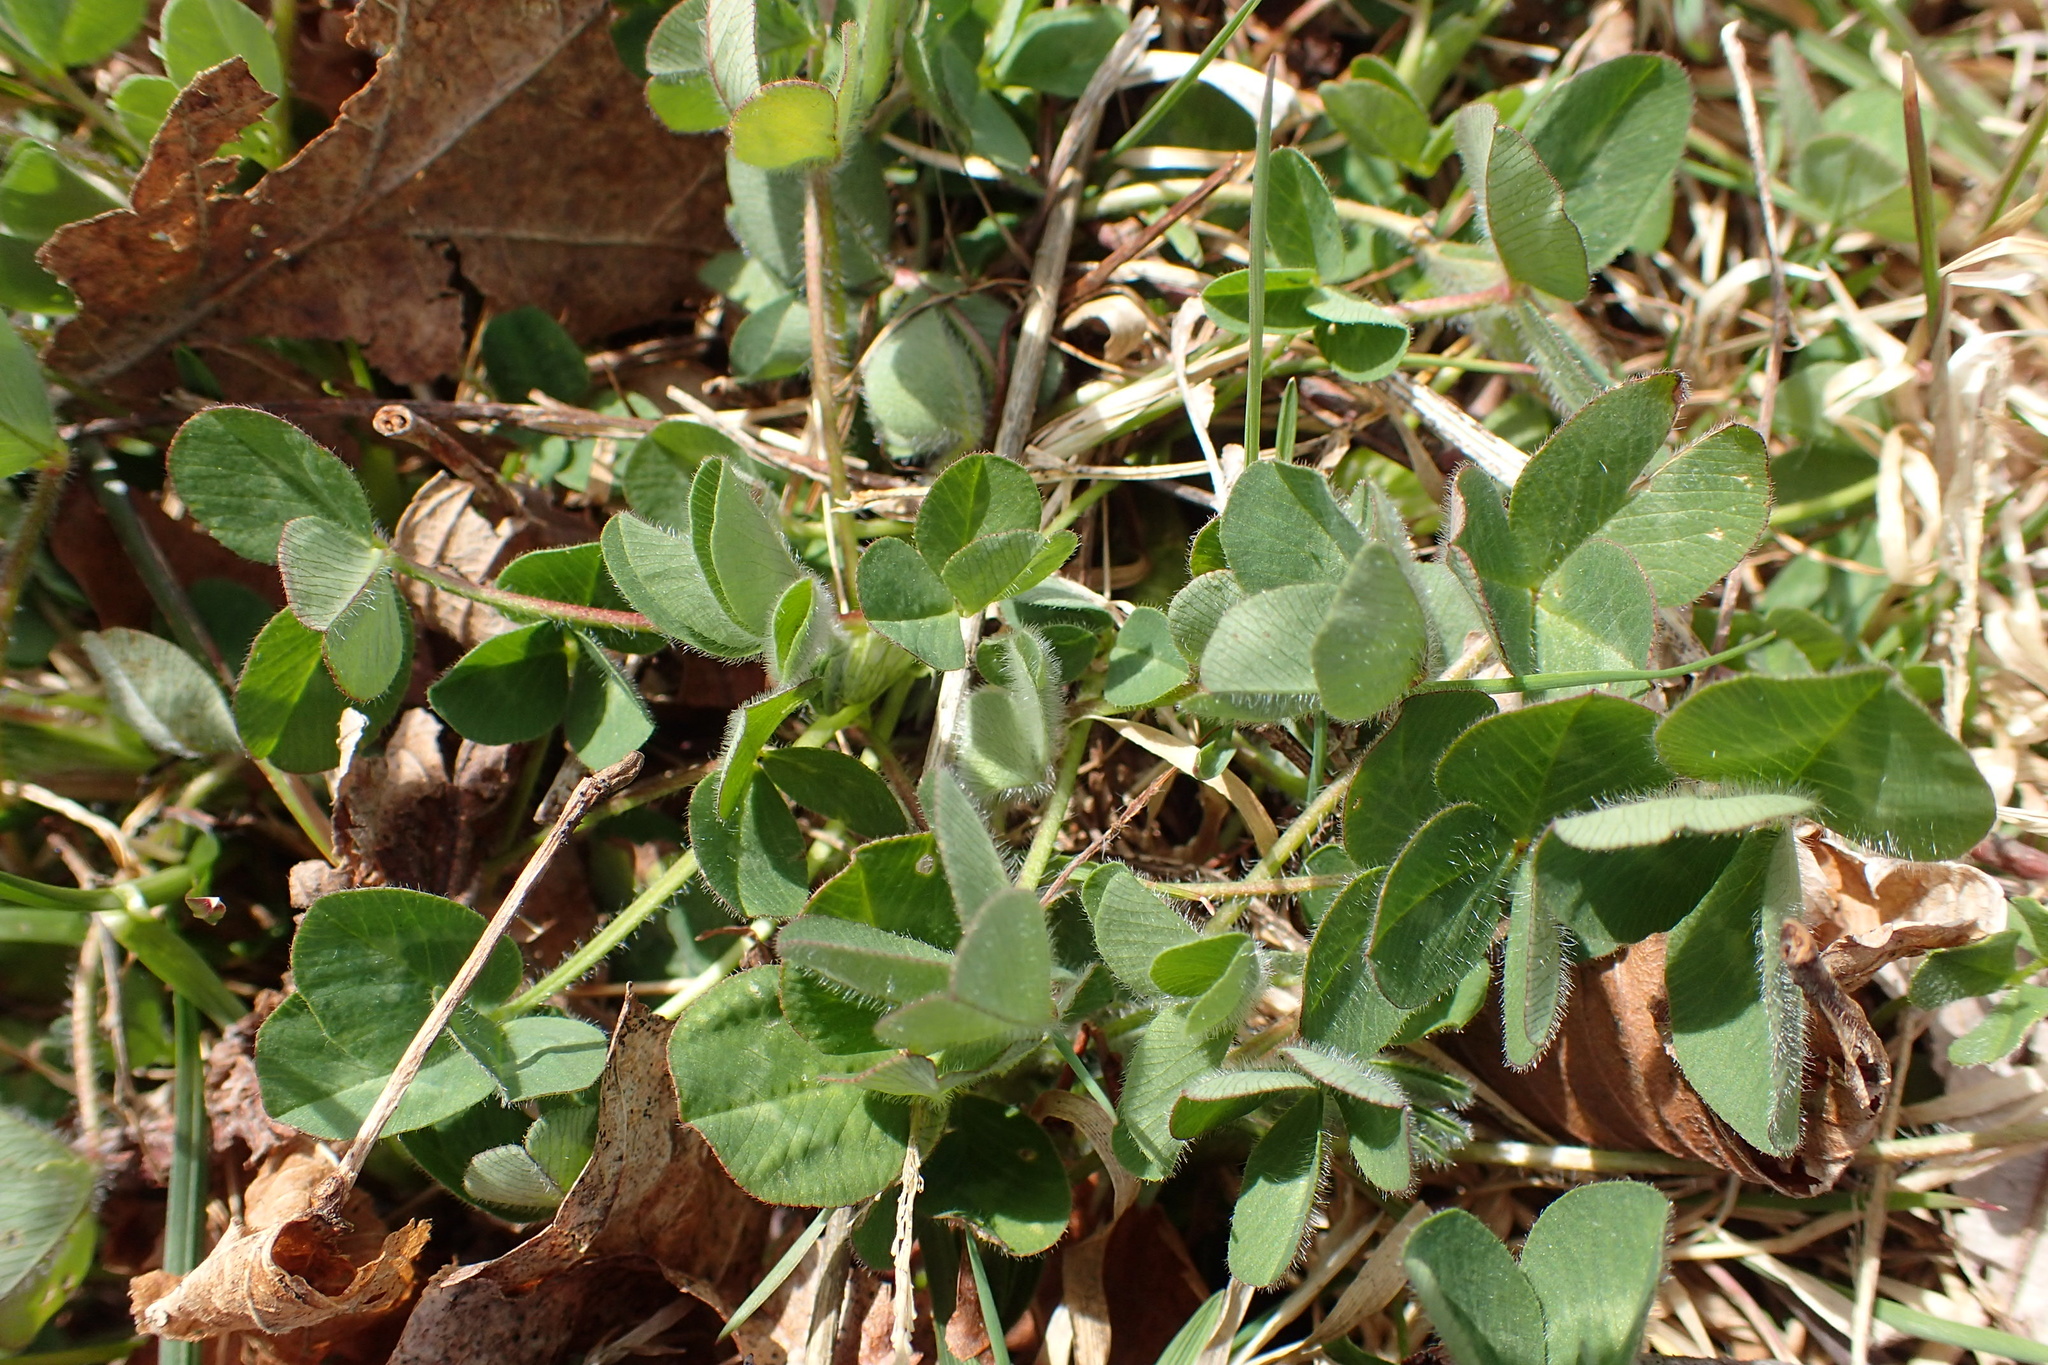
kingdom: Plantae
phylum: Tracheophyta
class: Magnoliopsida
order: Fabales
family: Fabaceae
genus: Trifolium
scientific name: Trifolium pratense
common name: Red clover
